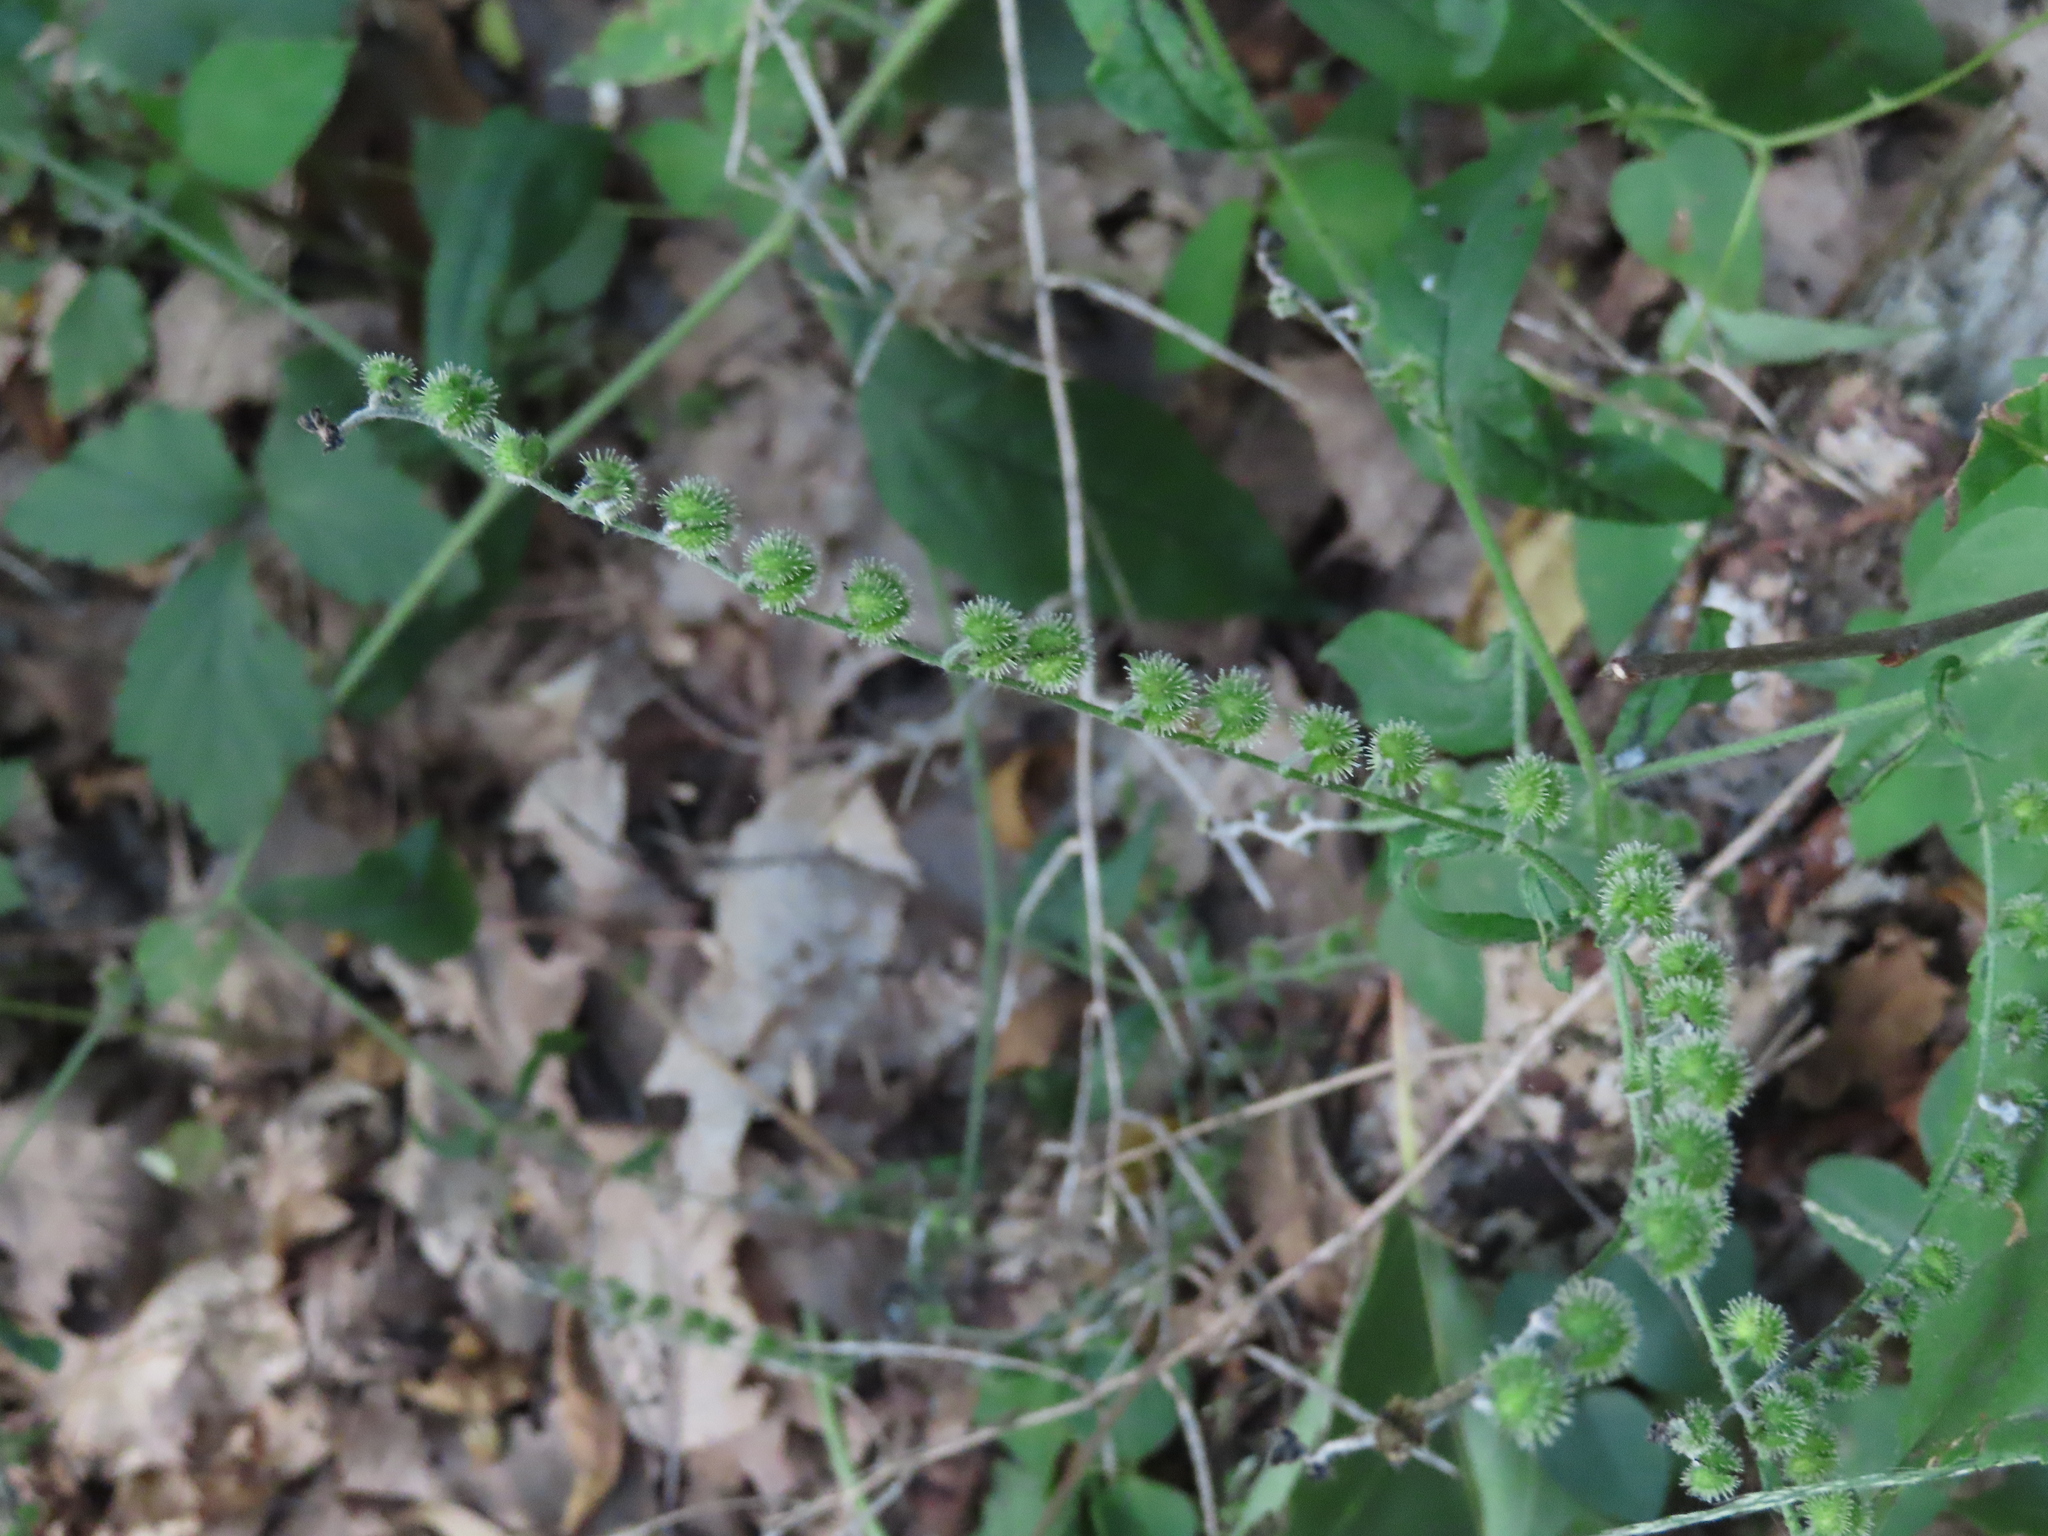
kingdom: Plantae
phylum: Tracheophyta
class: Magnoliopsida
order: Boraginales
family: Boraginaceae
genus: Hackelia
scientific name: Hackelia virginiana
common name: Beggar's-lice
